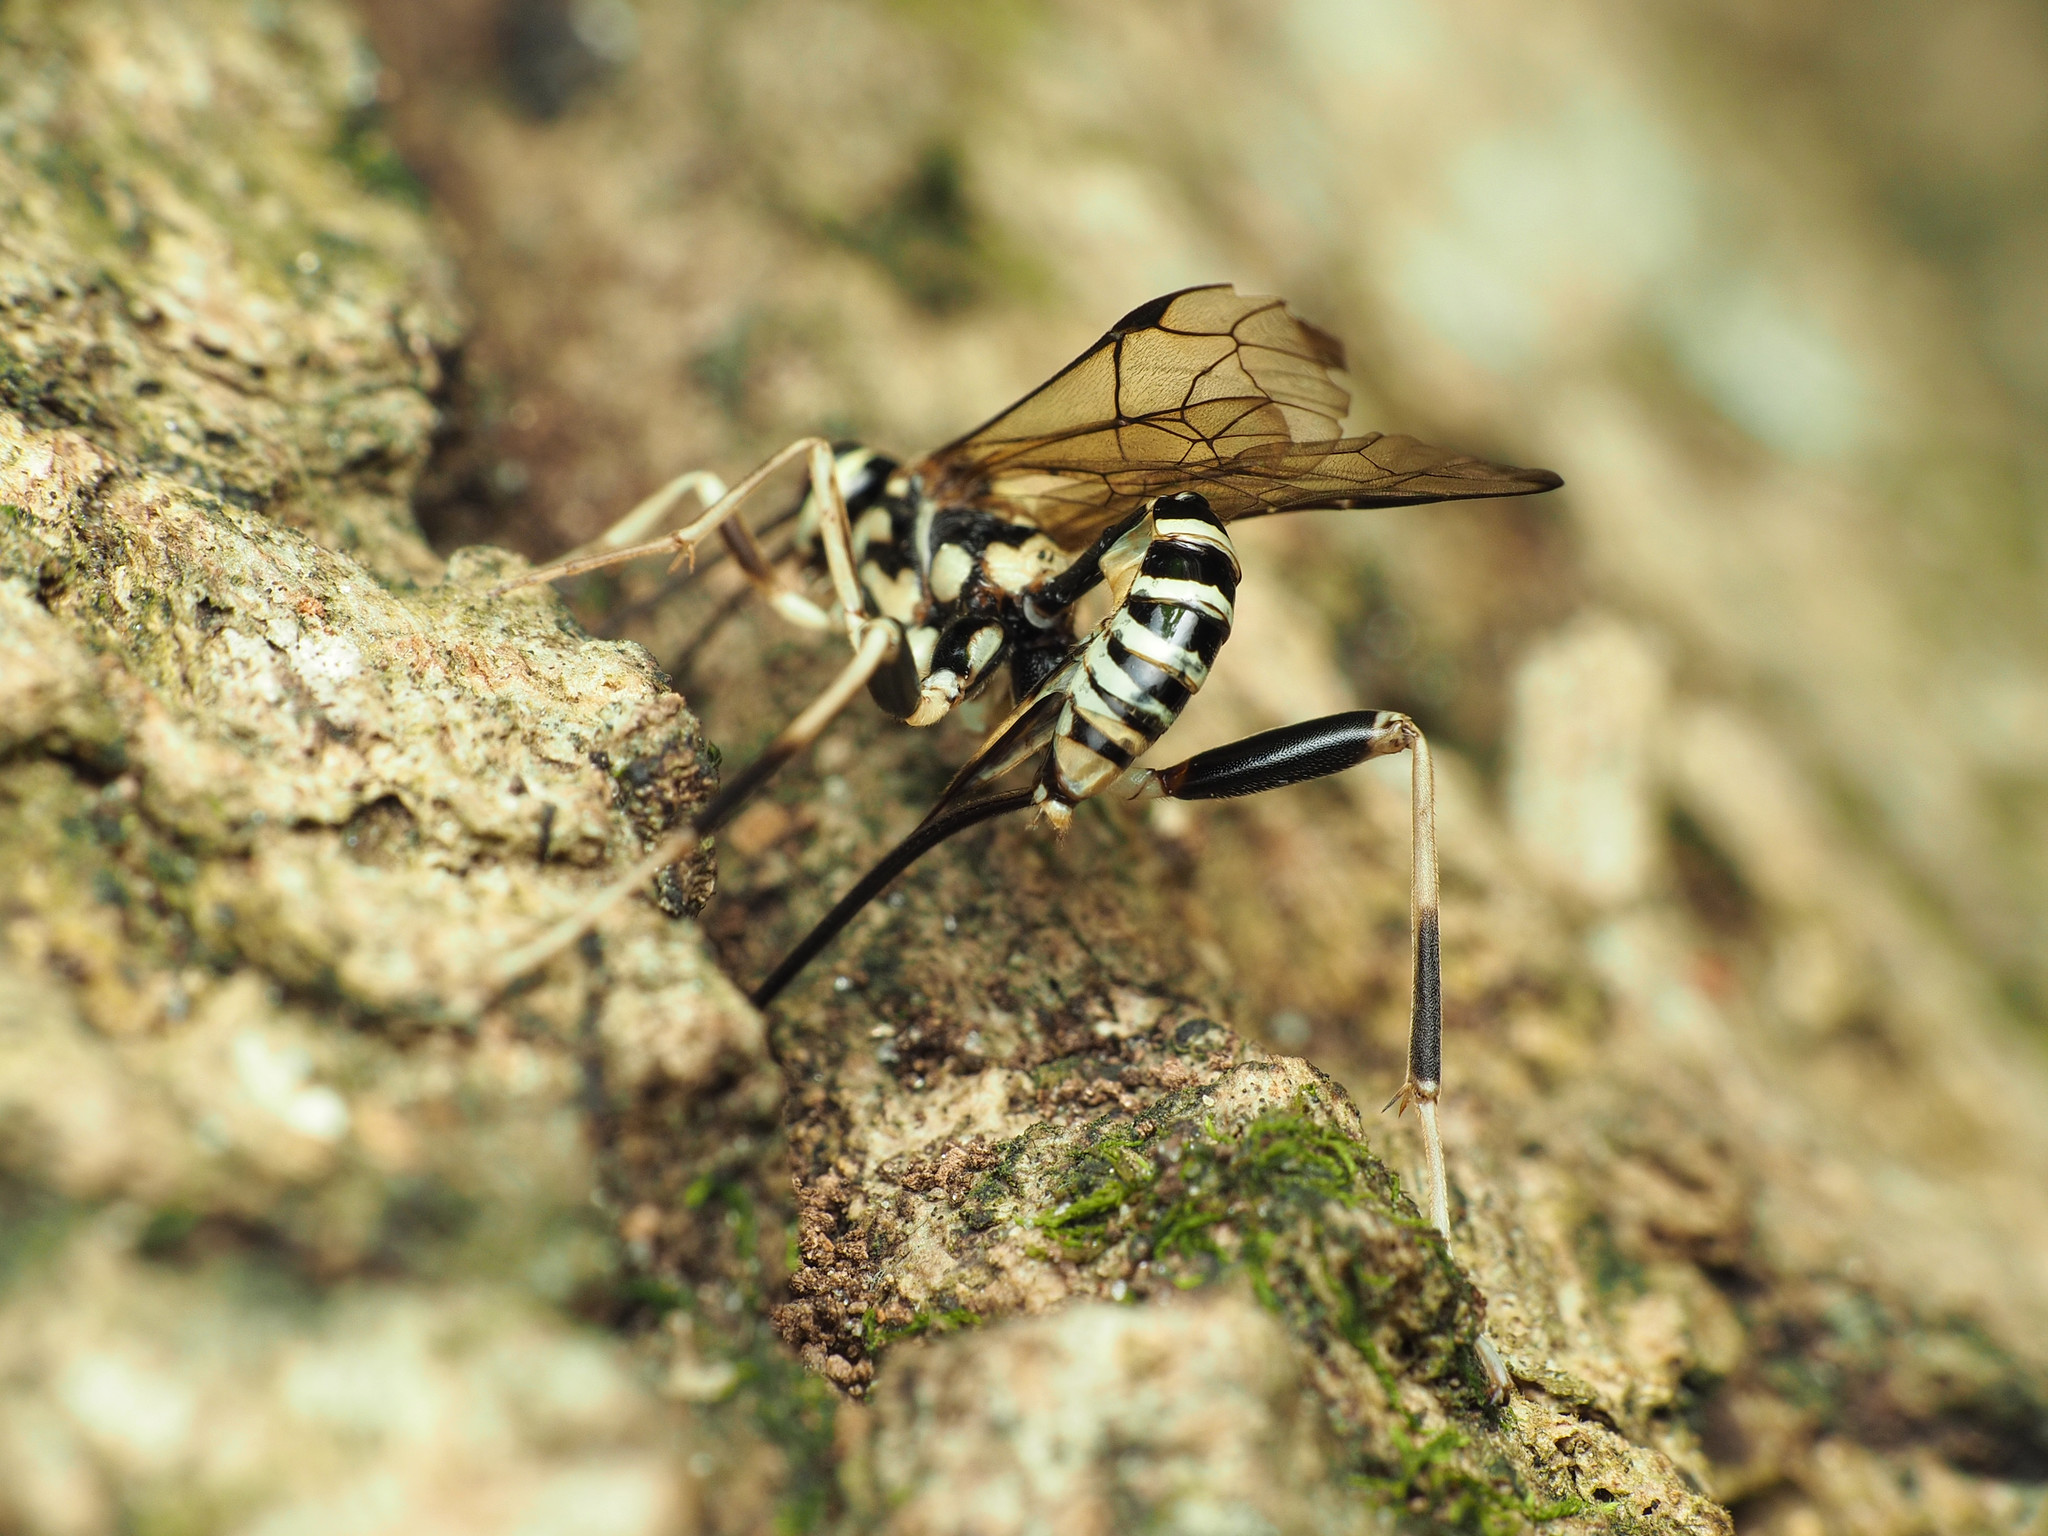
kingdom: Animalia
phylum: Arthropoda
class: Insecta
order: Hymenoptera
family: Ichneumonidae
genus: Arotes
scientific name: Arotes amoenus
